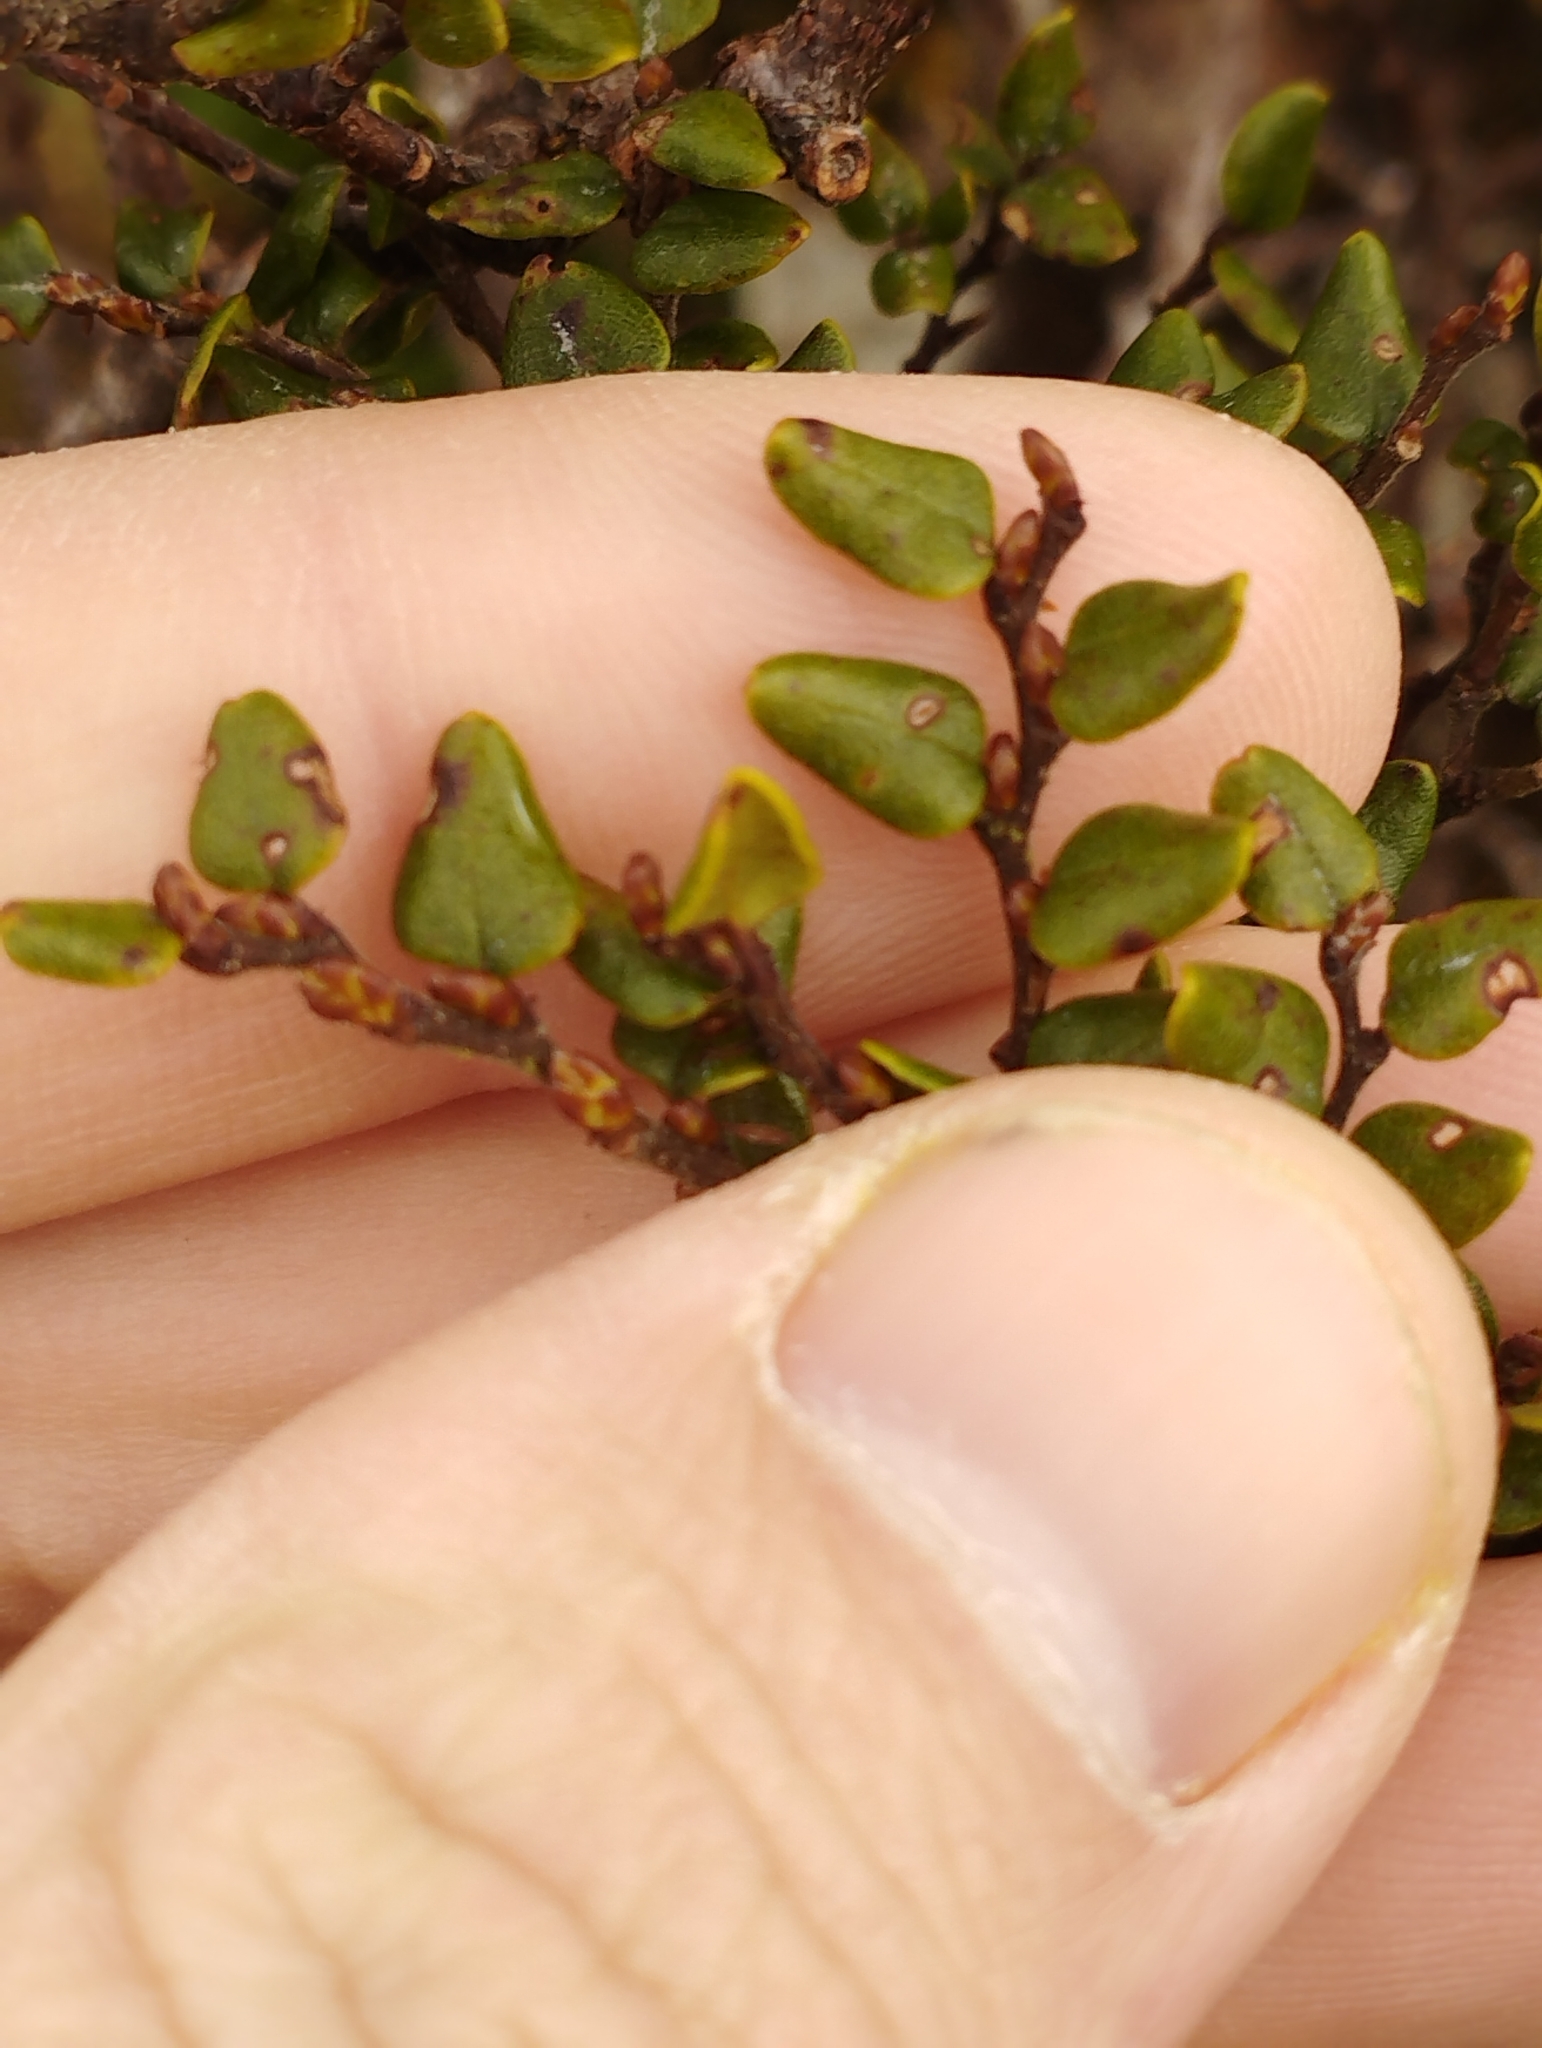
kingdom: Plantae
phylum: Tracheophyta
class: Magnoliopsida
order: Fagales
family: Nothofagaceae
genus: Nothofagus
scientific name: Nothofagus cliffortioides
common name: Mountain beech
